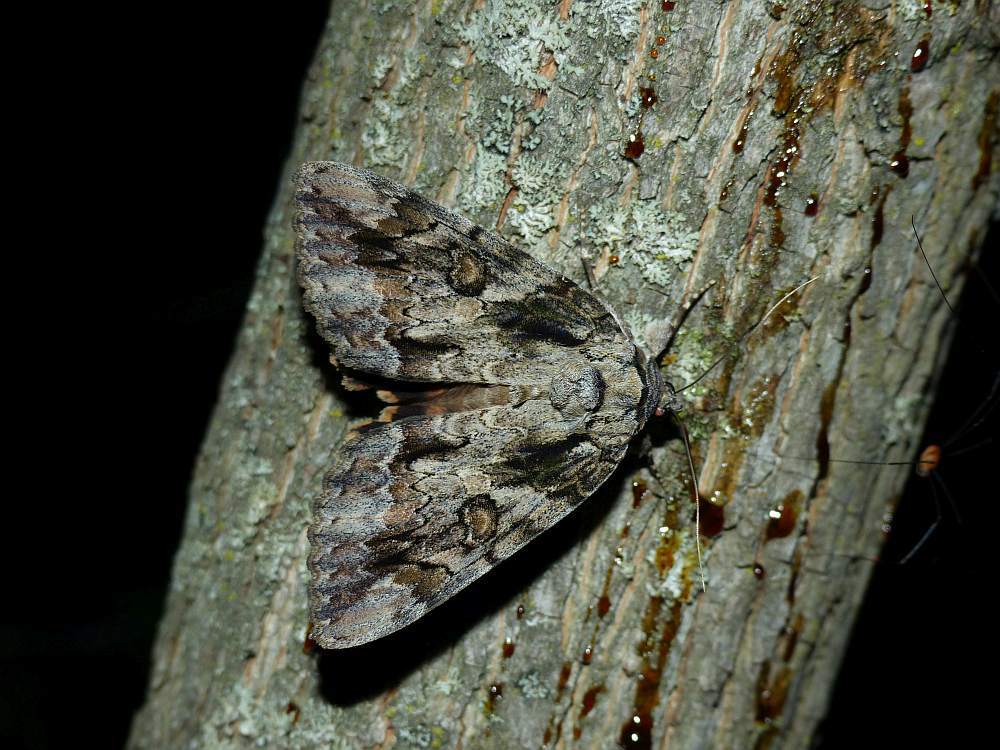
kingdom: Animalia
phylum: Arthropoda
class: Insecta
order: Lepidoptera
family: Erebidae
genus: Catocala
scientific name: Catocala neogama
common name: Bride underwing
